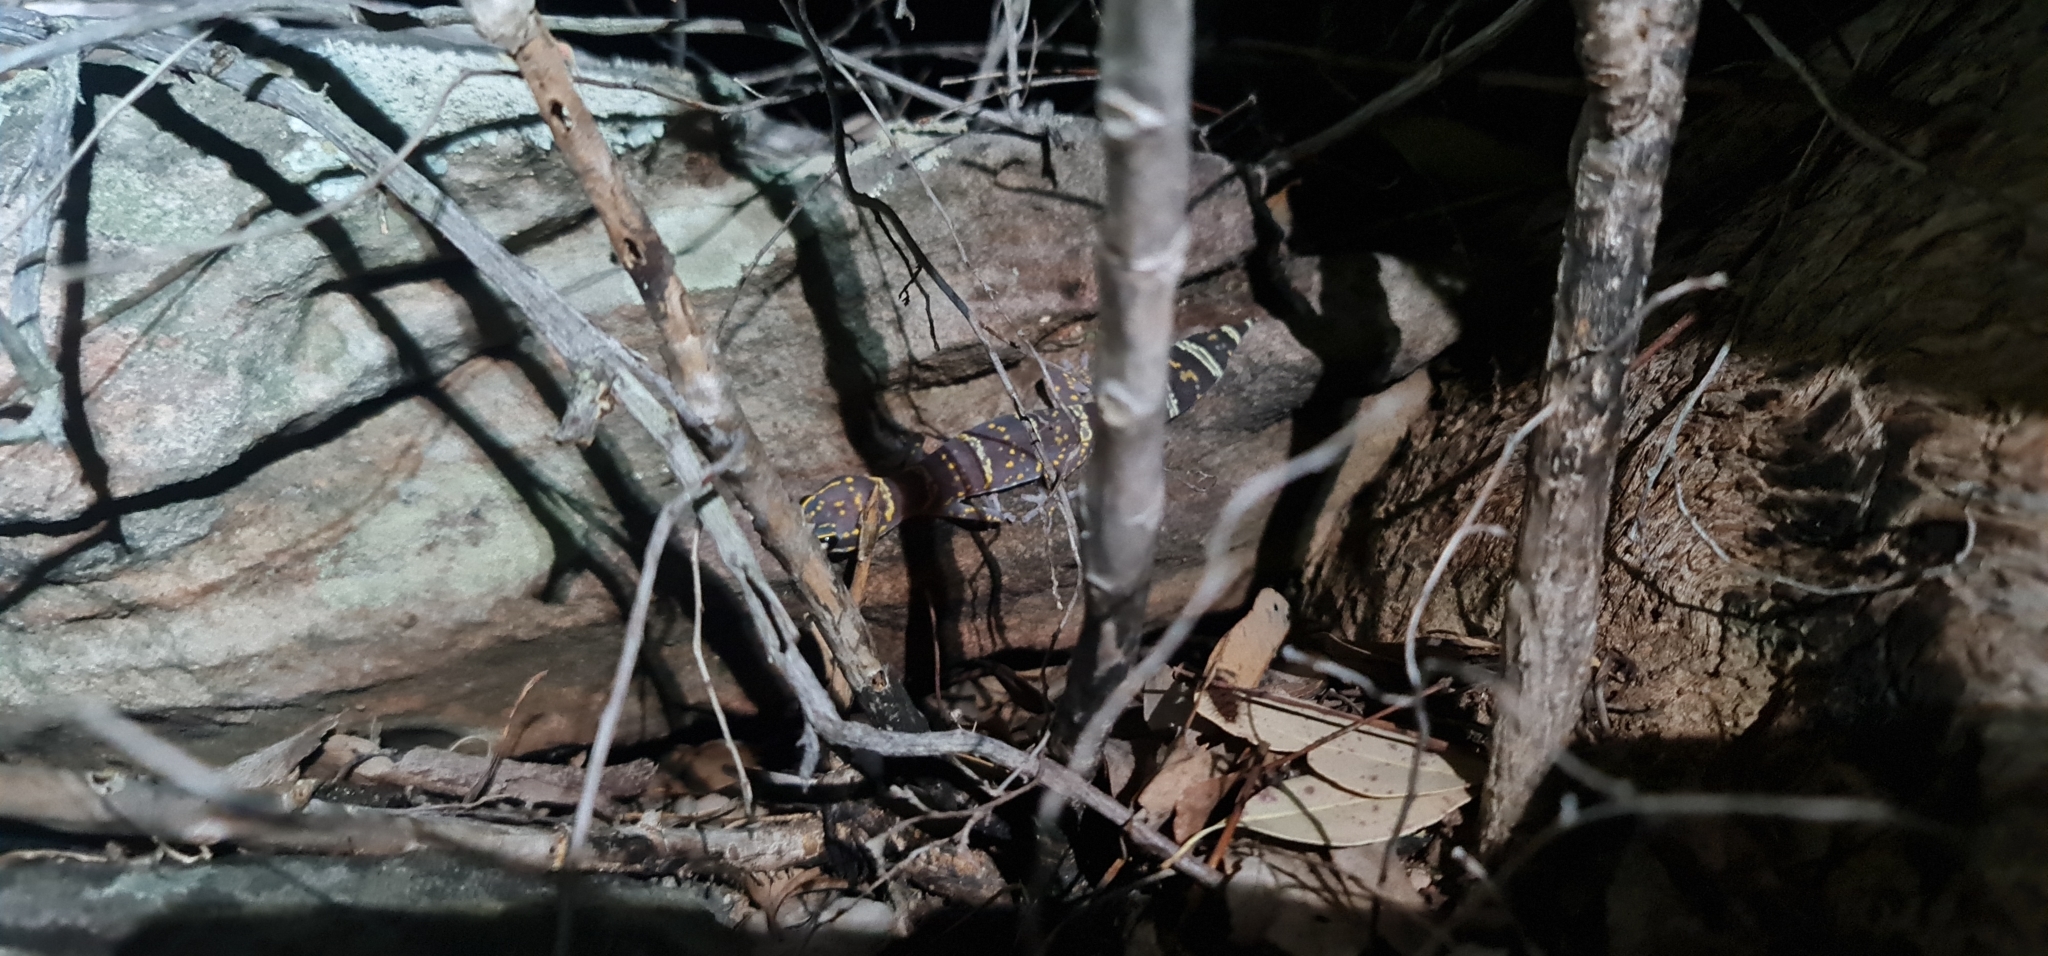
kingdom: Animalia
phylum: Chordata
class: Squamata
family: Diplodactylidae
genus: Oedura
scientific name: Oedura marmorata
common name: Marbled velvet gecko
